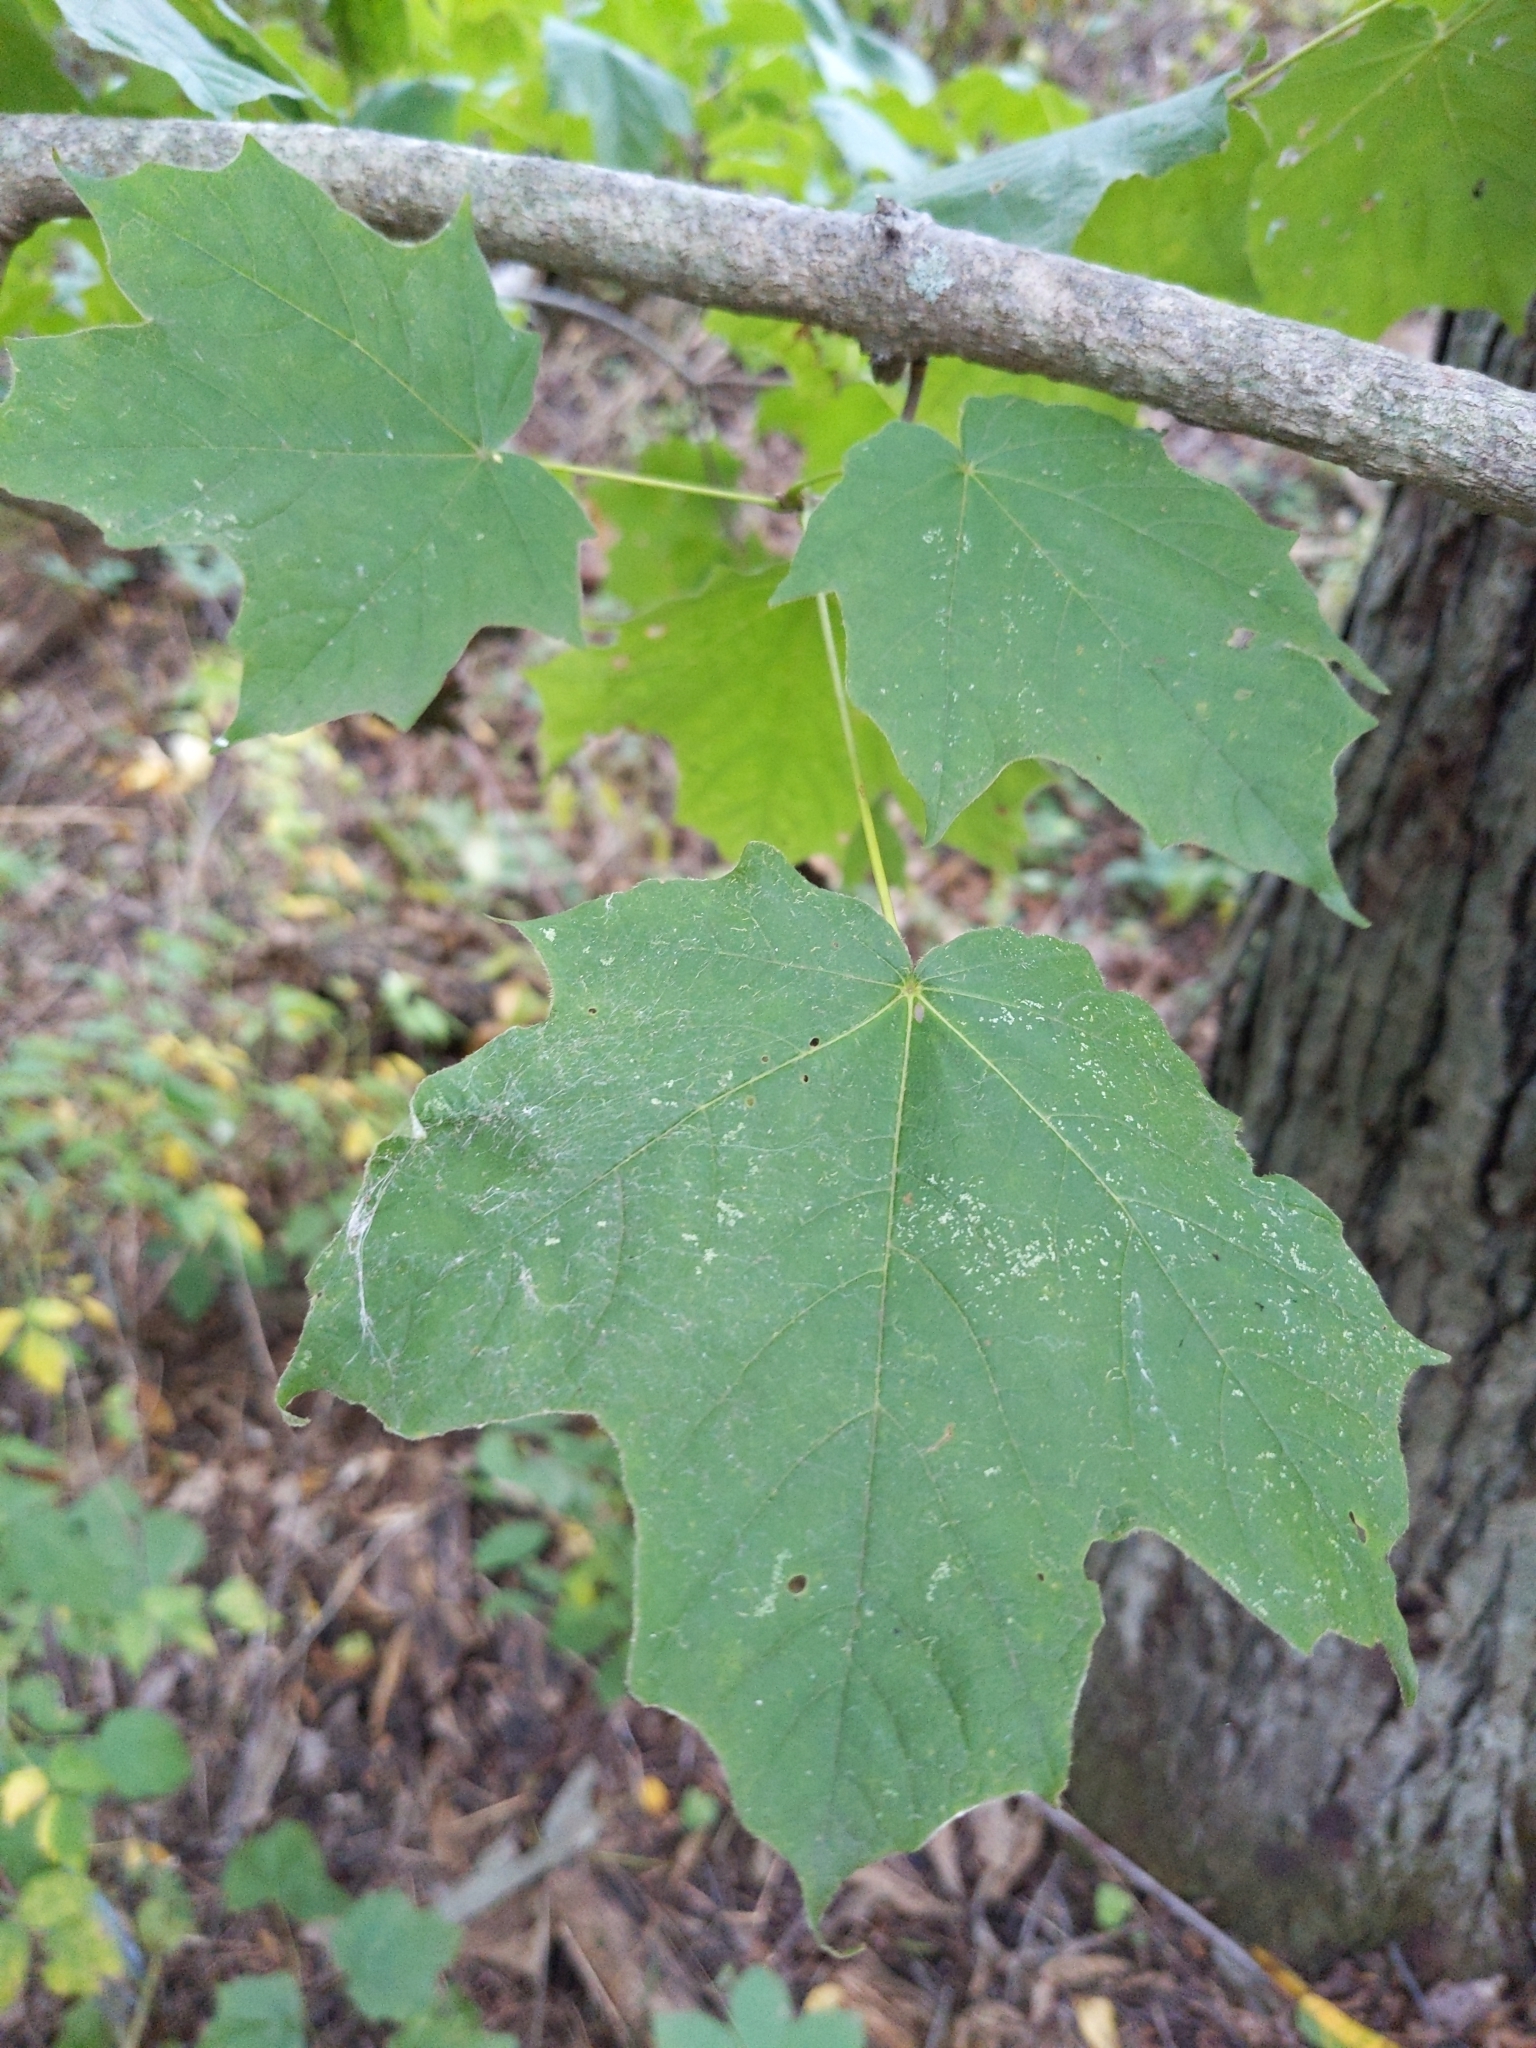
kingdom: Plantae
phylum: Tracheophyta
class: Magnoliopsida
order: Sapindales
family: Sapindaceae
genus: Acer
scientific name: Acer nigrum
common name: Black maple
